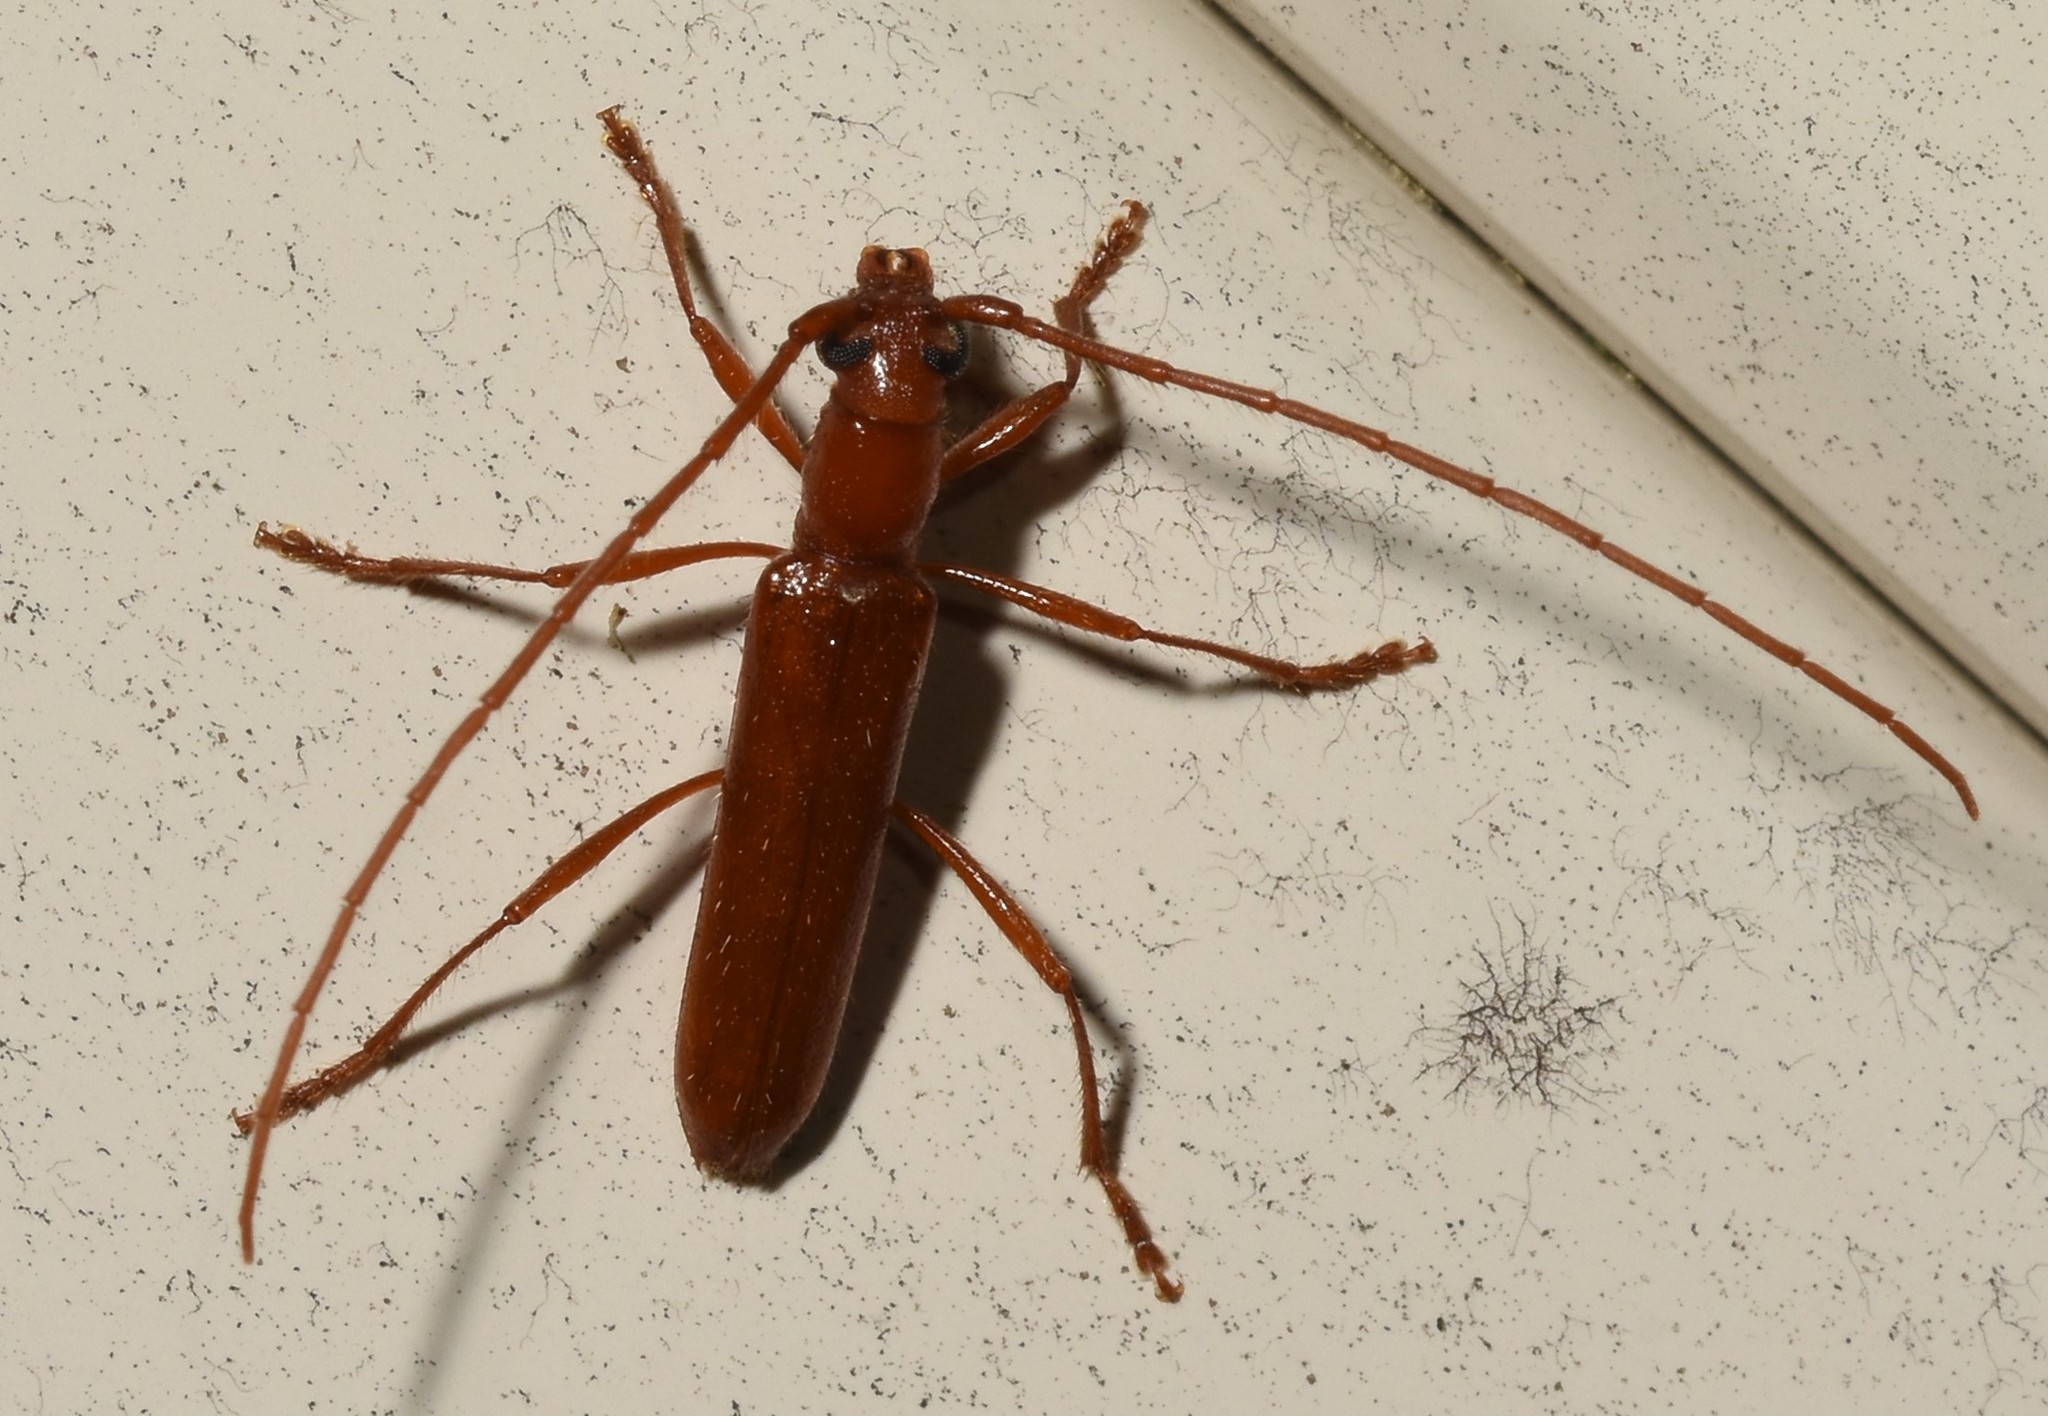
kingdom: Animalia
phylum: Arthropoda
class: Insecta
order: Coleoptera
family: Cerambycidae
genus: Psyrassa
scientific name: Psyrassa unicolor
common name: Branch pruner
